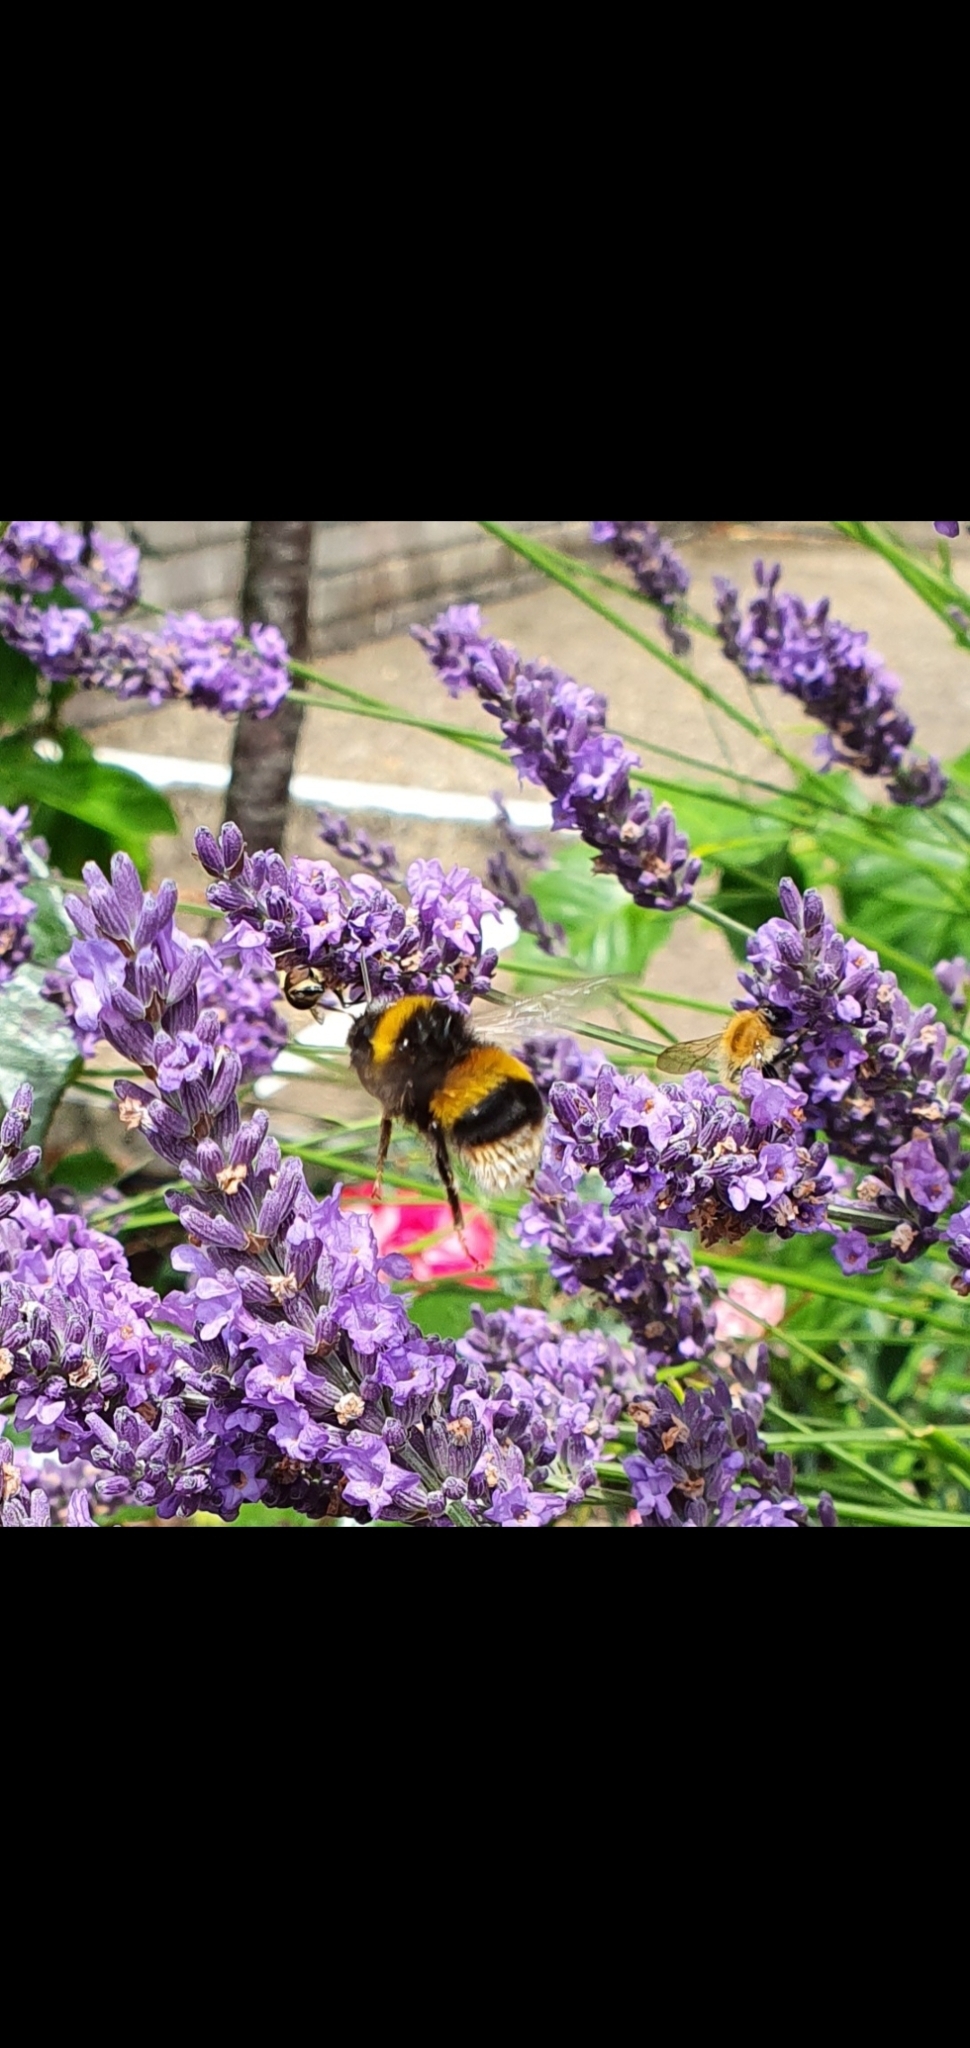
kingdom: Animalia
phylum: Arthropoda
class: Insecta
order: Hymenoptera
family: Apidae
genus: Bombus
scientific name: Bombus terrestris
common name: Buff-tailed bumblebee
